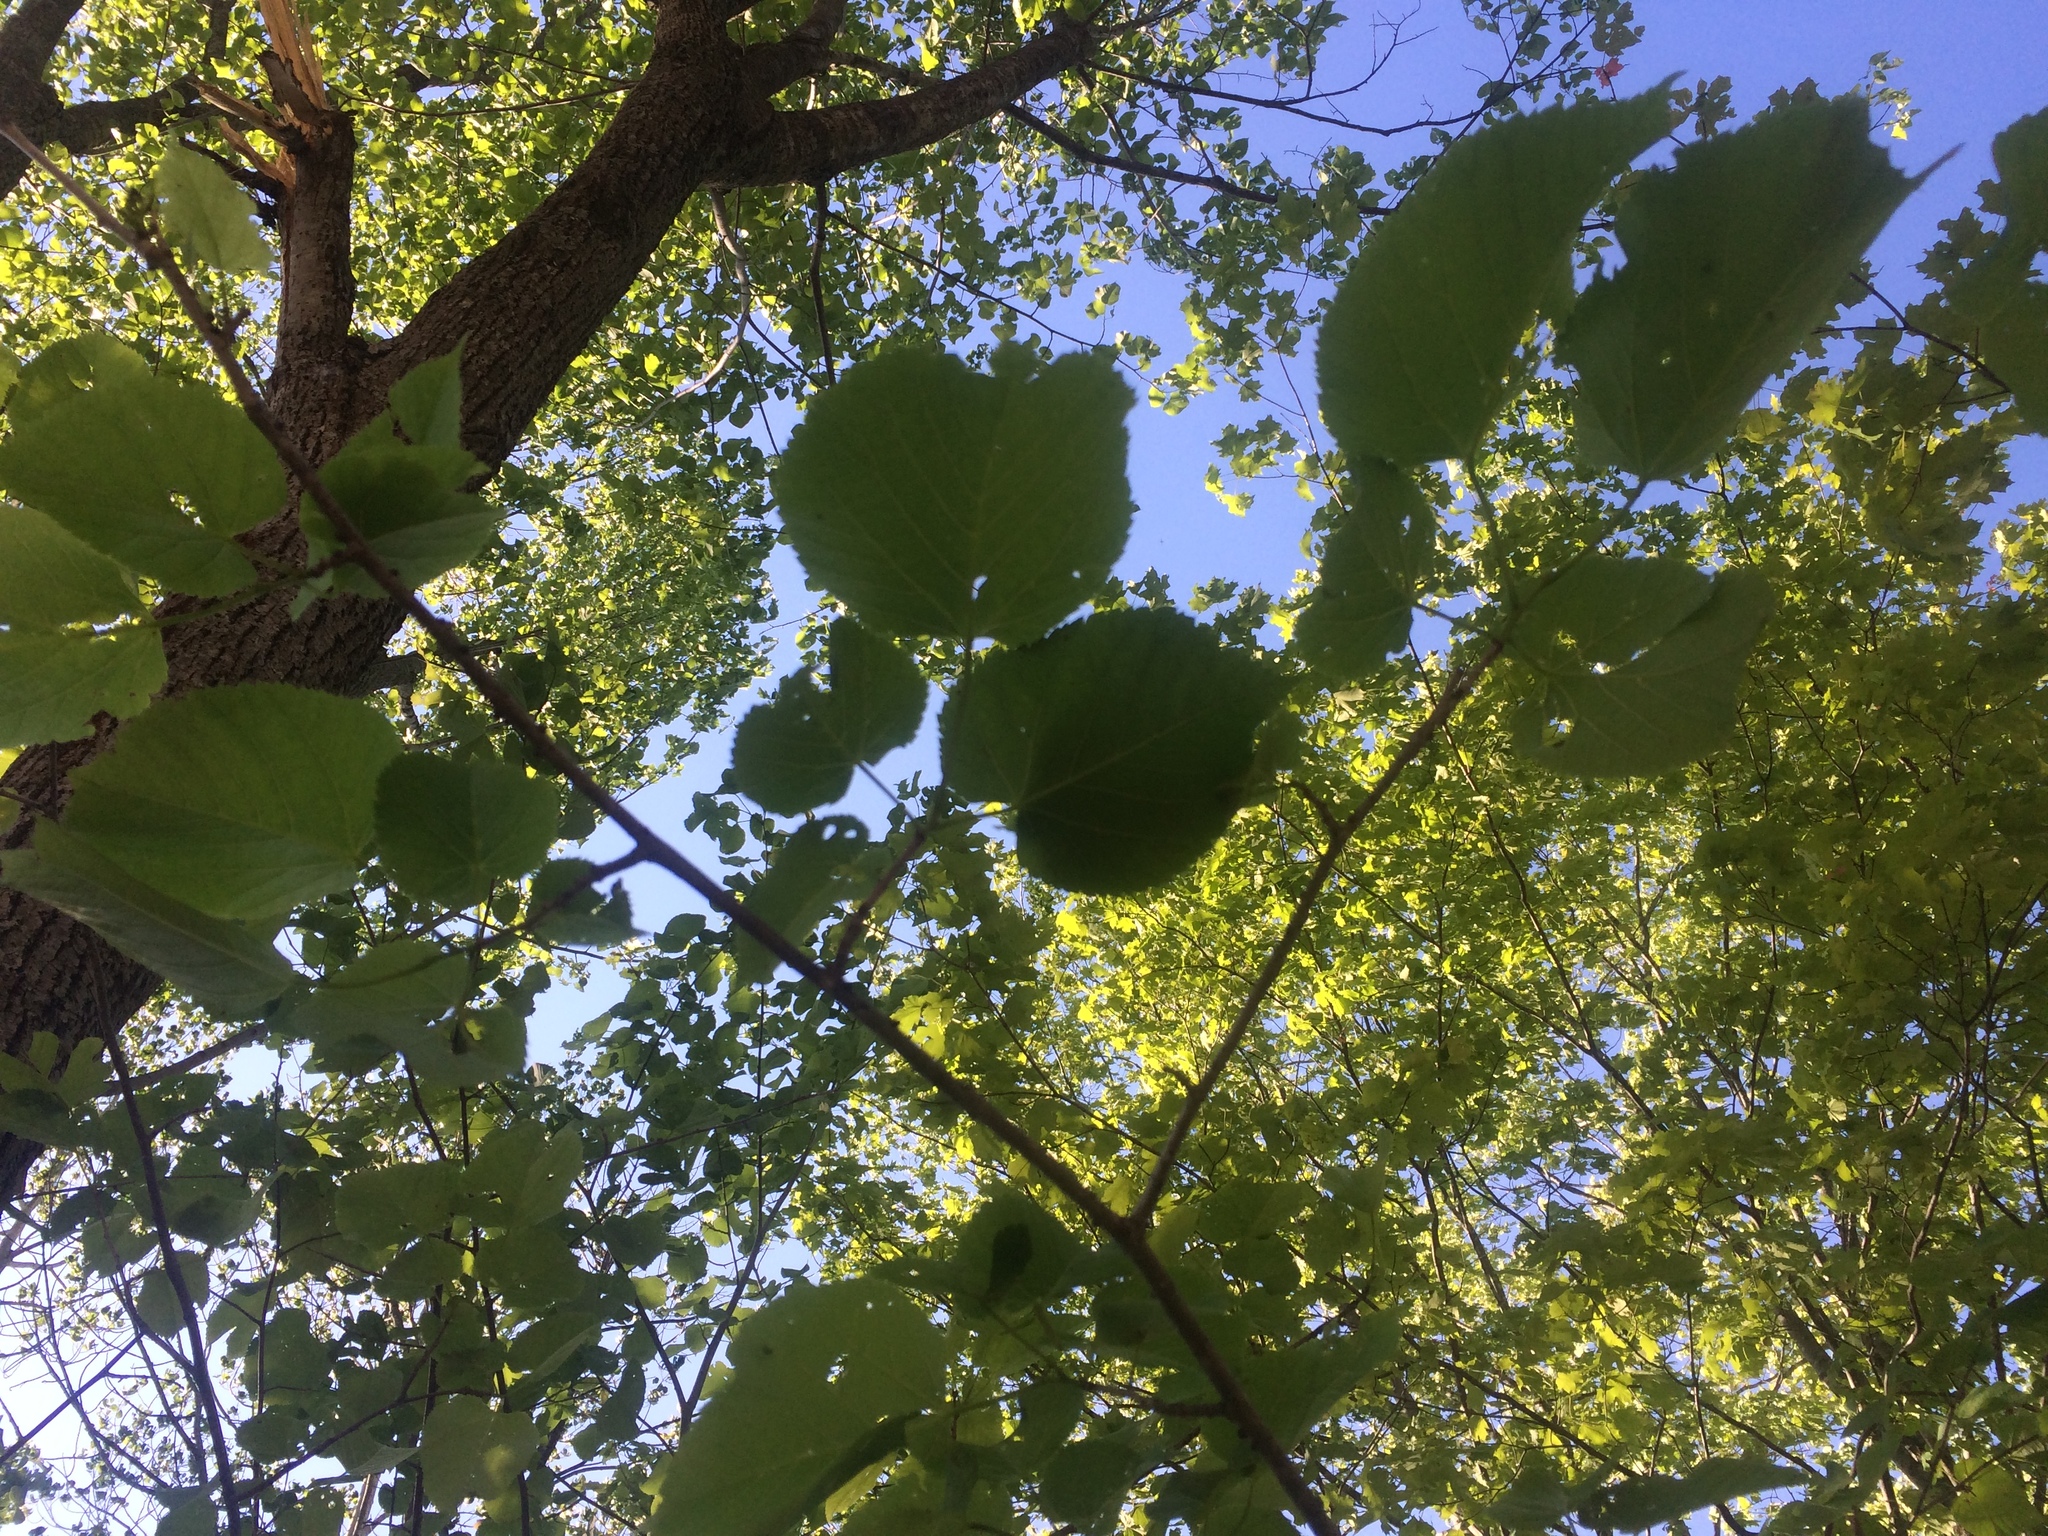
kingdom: Plantae
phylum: Tracheophyta
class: Magnoliopsida
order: Malvales
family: Malvaceae
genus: Tilia
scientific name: Tilia americana
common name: Basswood
